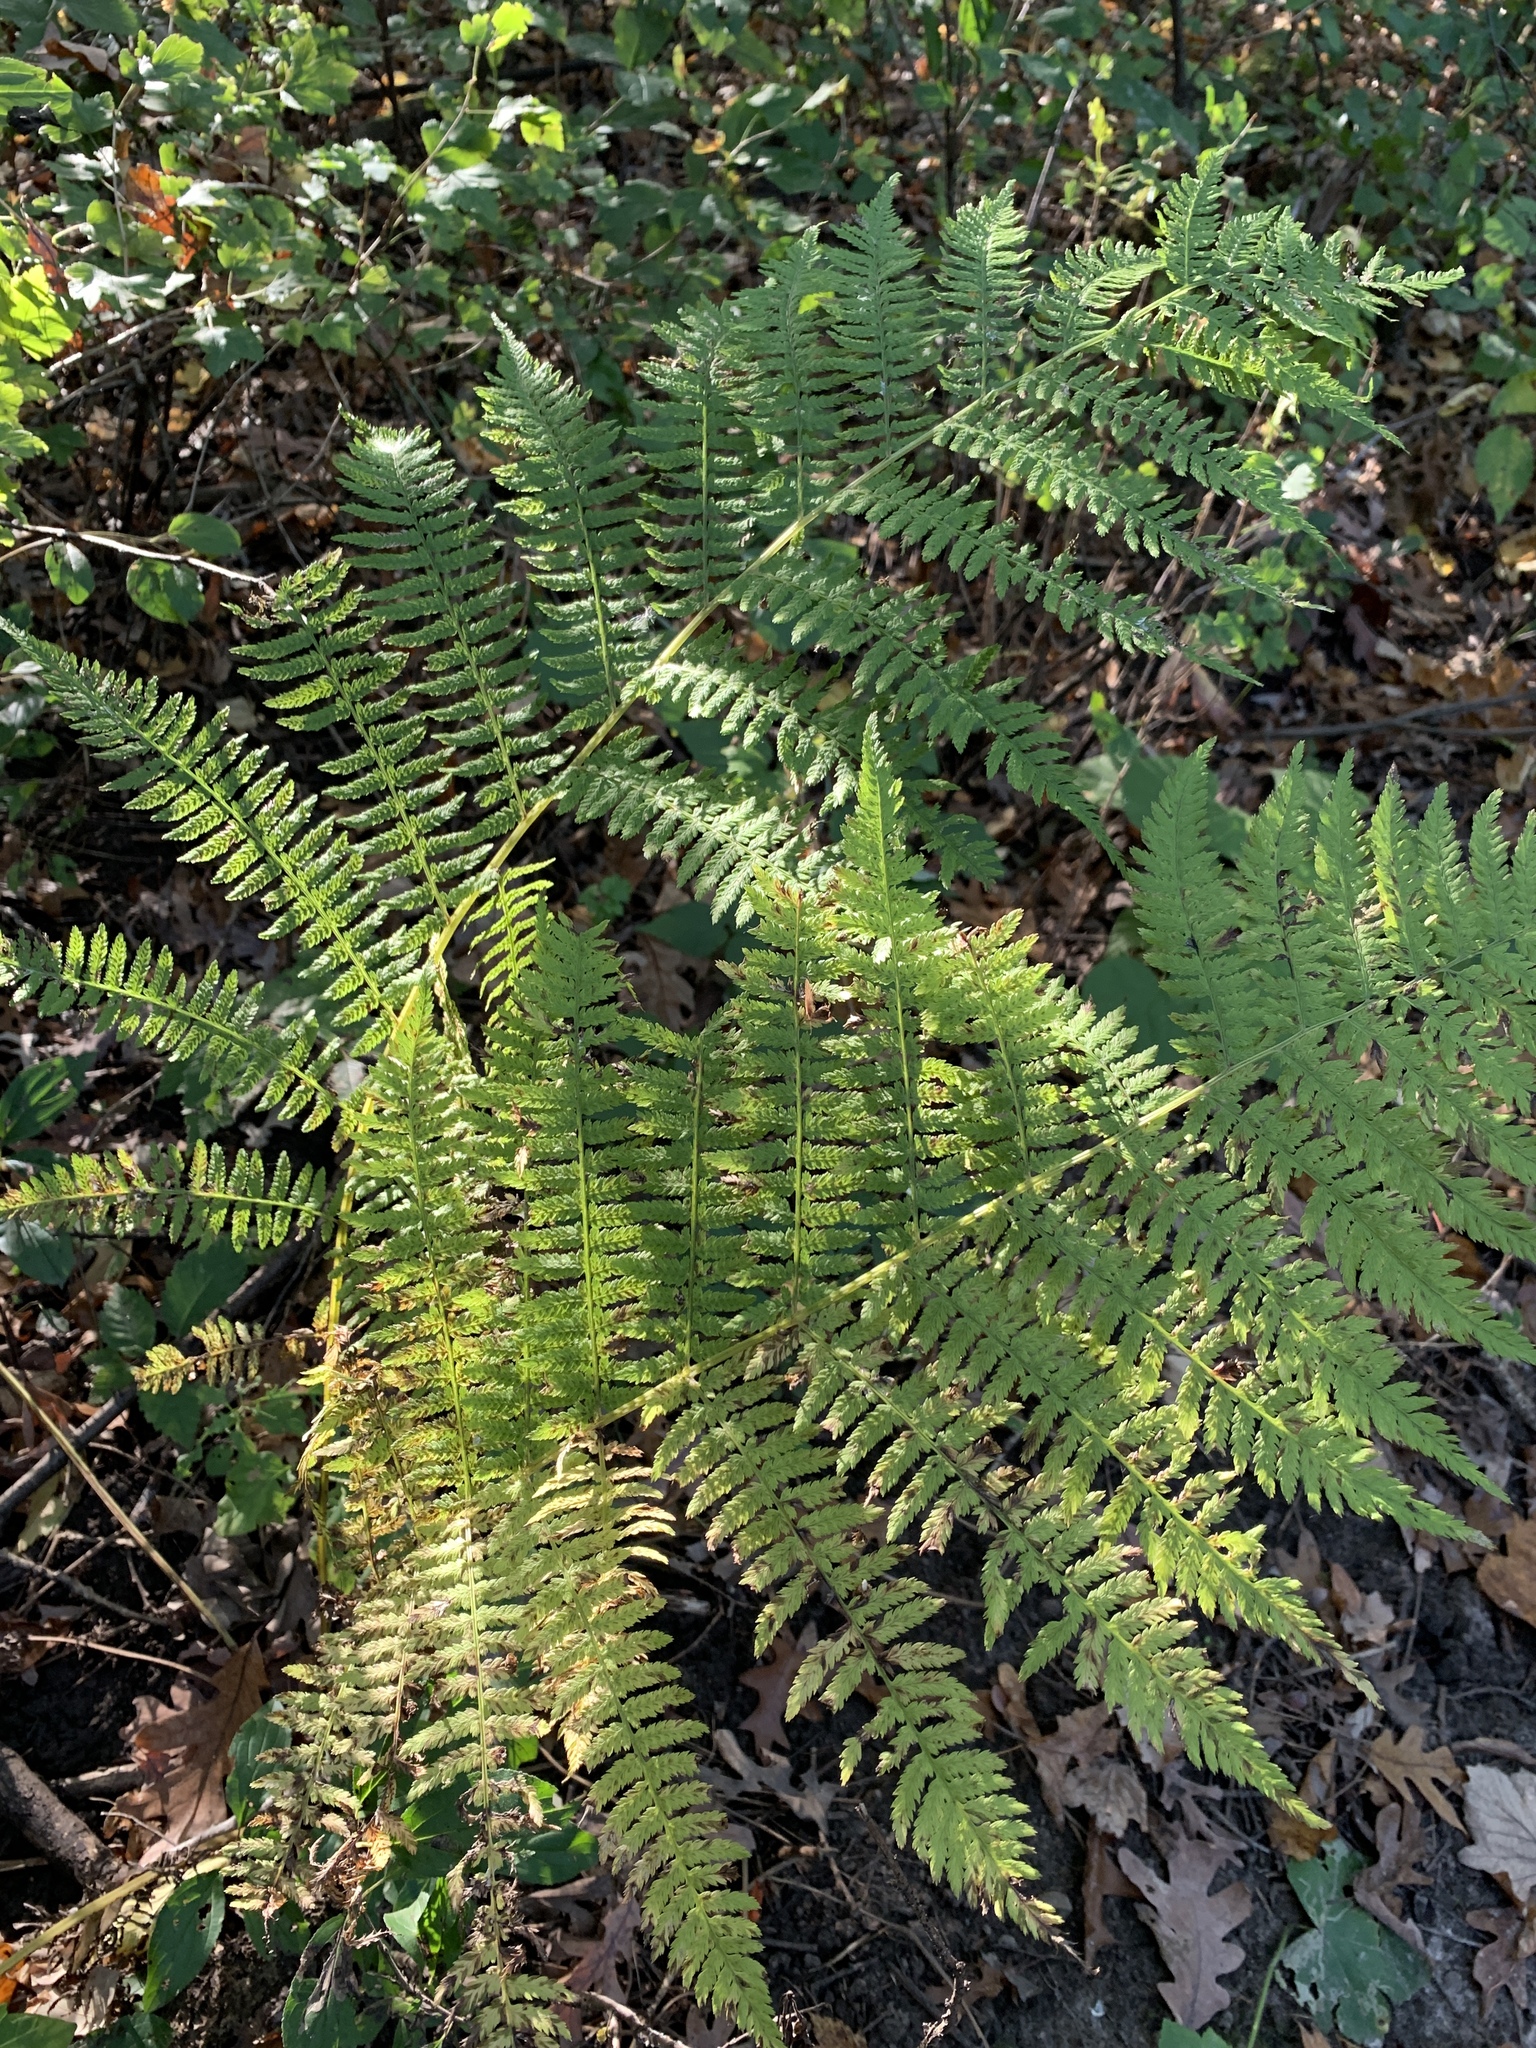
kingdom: Plantae
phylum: Tracheophyta
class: Polypodiopsida
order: Polypodiales
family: Athyriaceae
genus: Athyrium
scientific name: Athyrium angustum
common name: Northern lady fern
